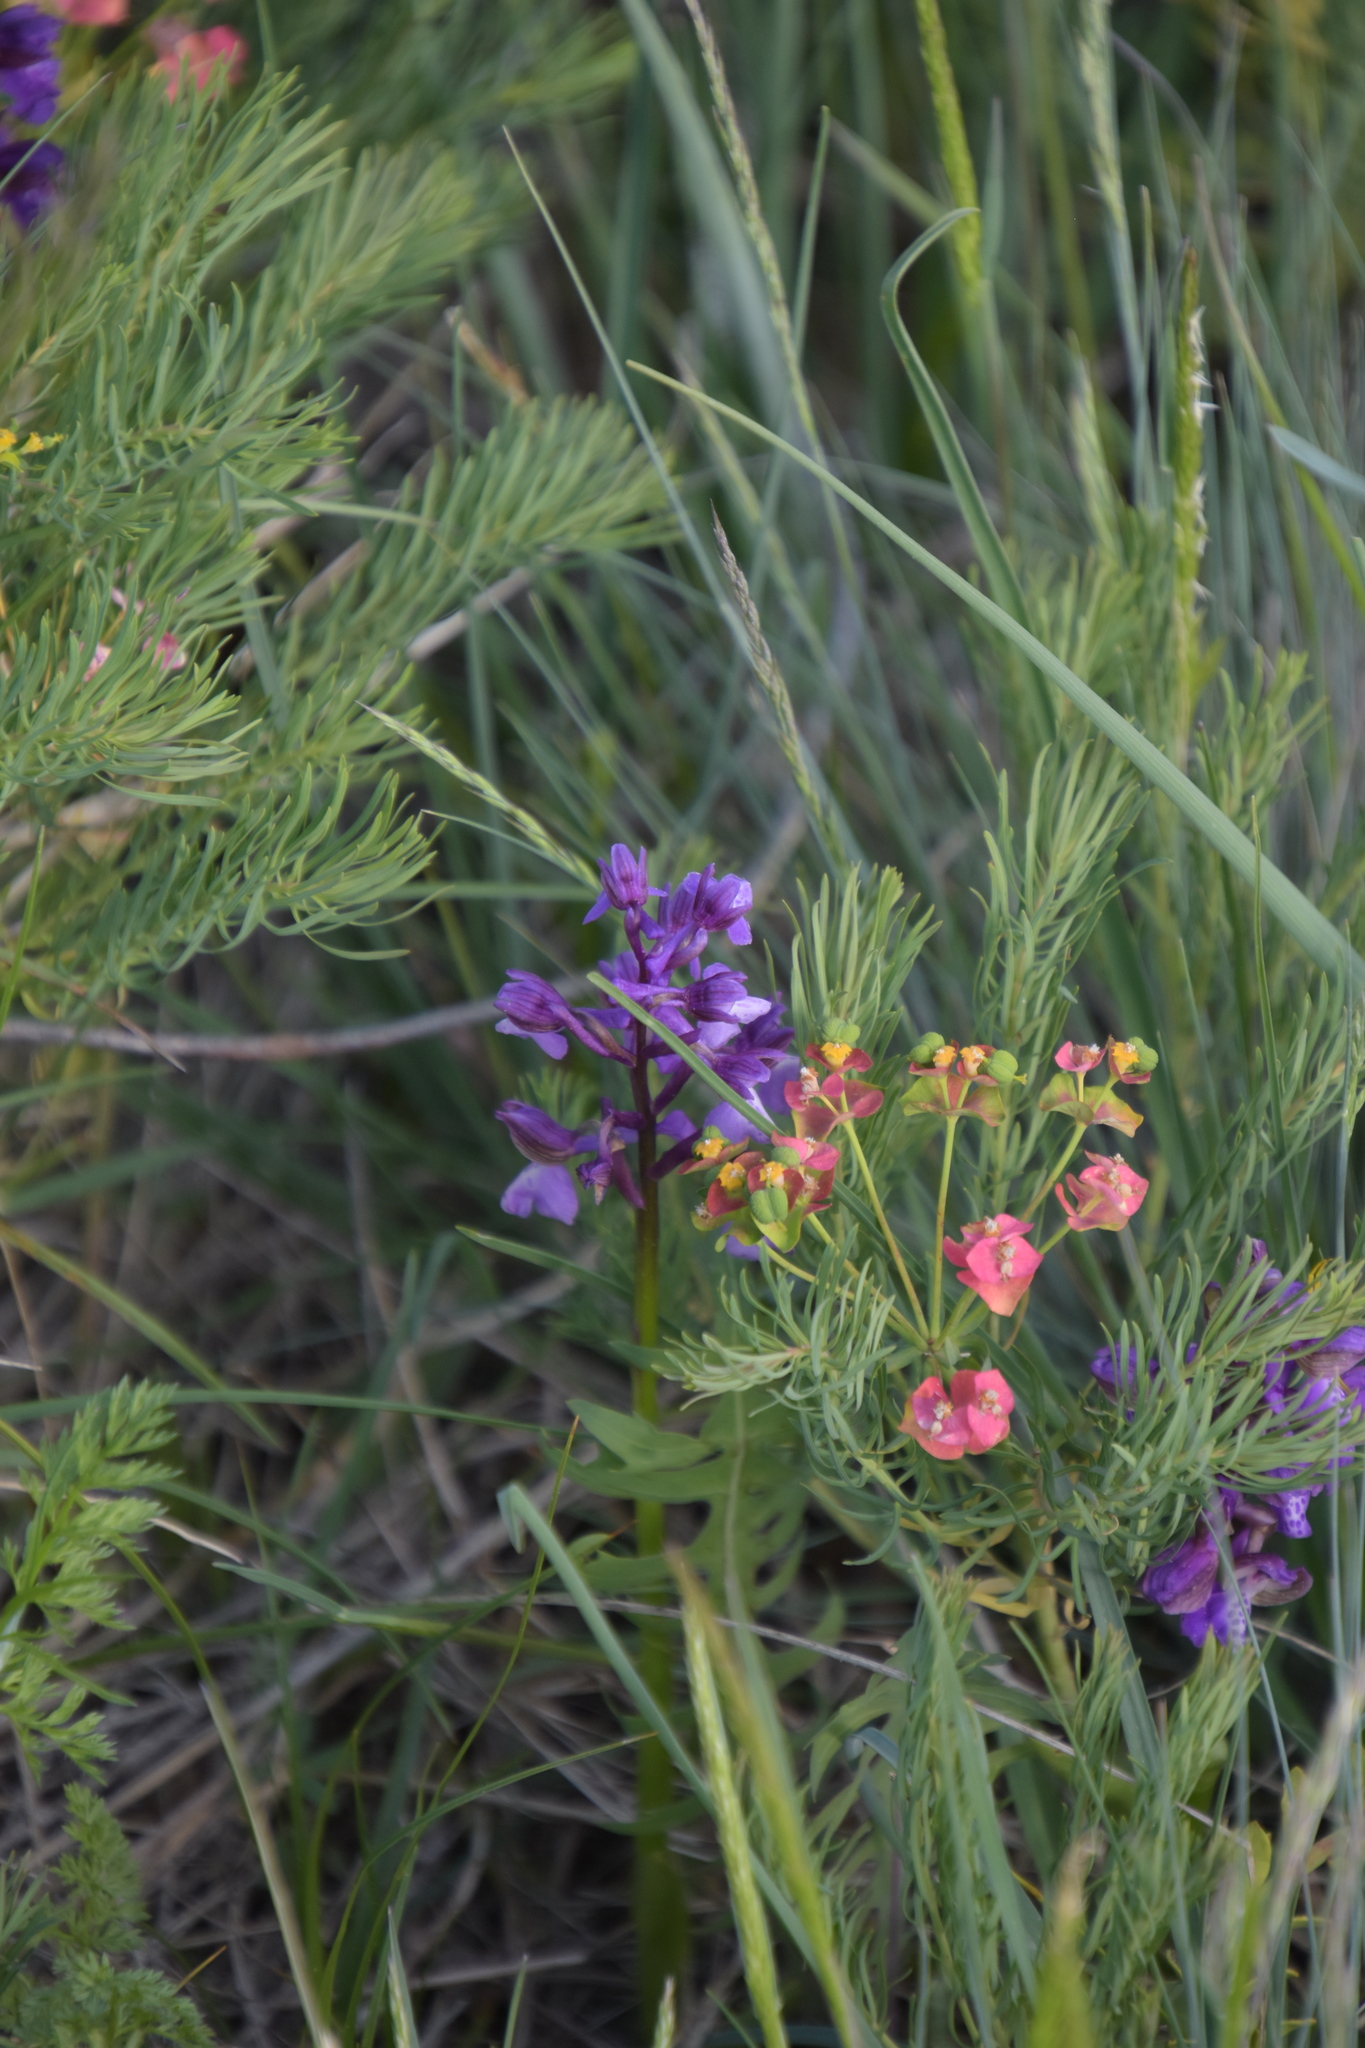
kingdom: Plantae
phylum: Tracheophyta
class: Liliopsida
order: Asparagales
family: Orchidaceae
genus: Anacamptis
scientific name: Anacamptis morio
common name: Green-winged orchid
